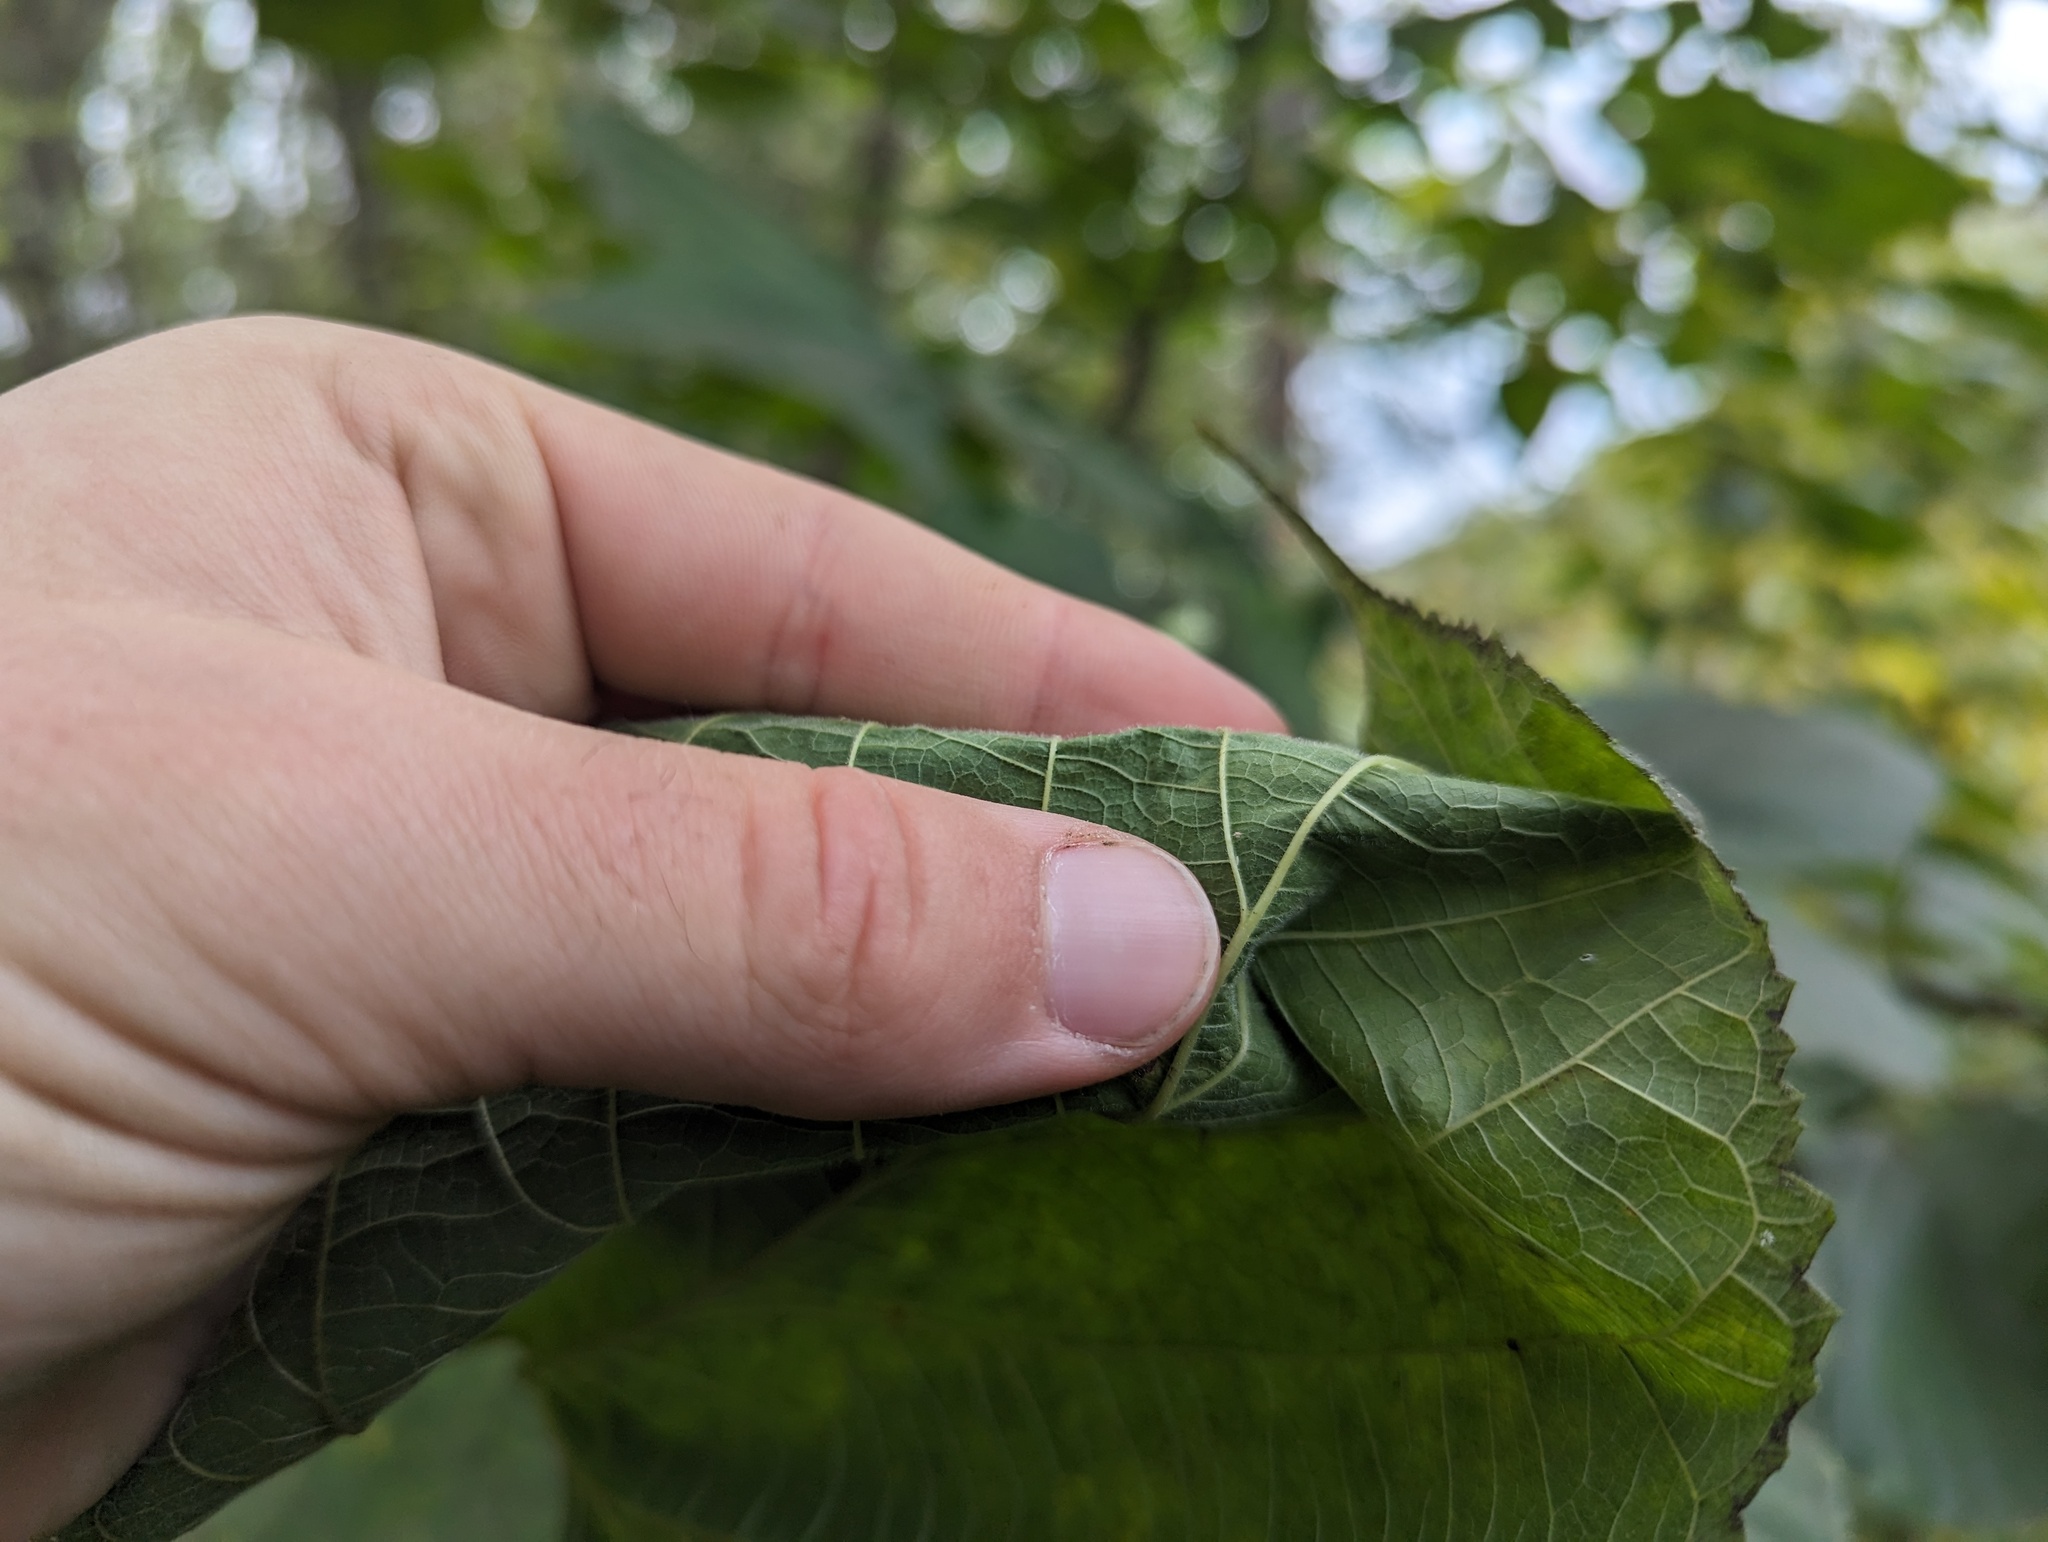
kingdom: Plantae
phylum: Tracheophyta
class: Magnoliopsida
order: Rosales
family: Moraceae
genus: Morus
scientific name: Morus rubra
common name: Red mulberry
